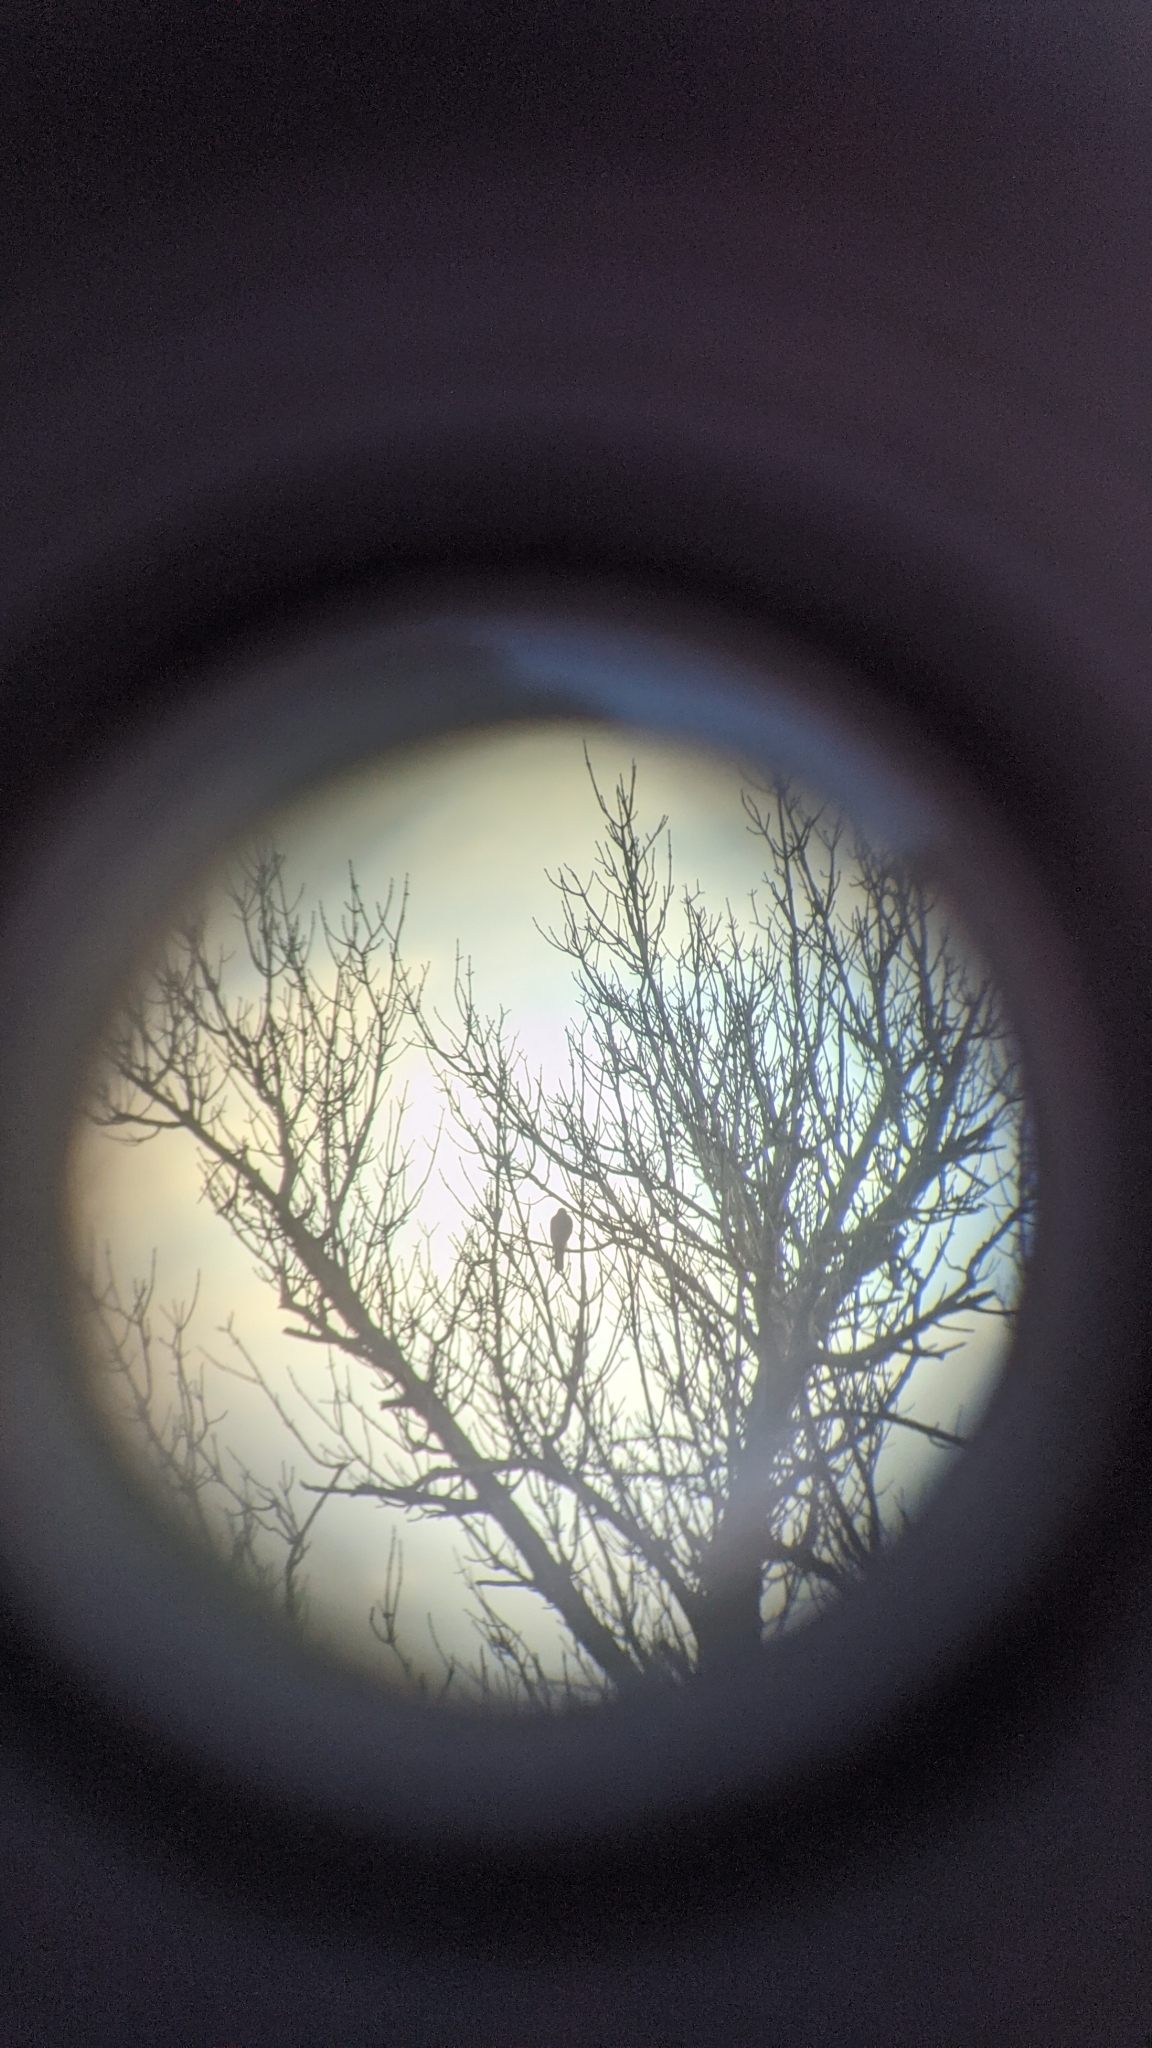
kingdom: Animalia
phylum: Chordata
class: Aves
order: Accipitriformes
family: Accipitridae
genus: Accipiter
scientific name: Accipiter nisus
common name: Eurasian sparrowhawk
